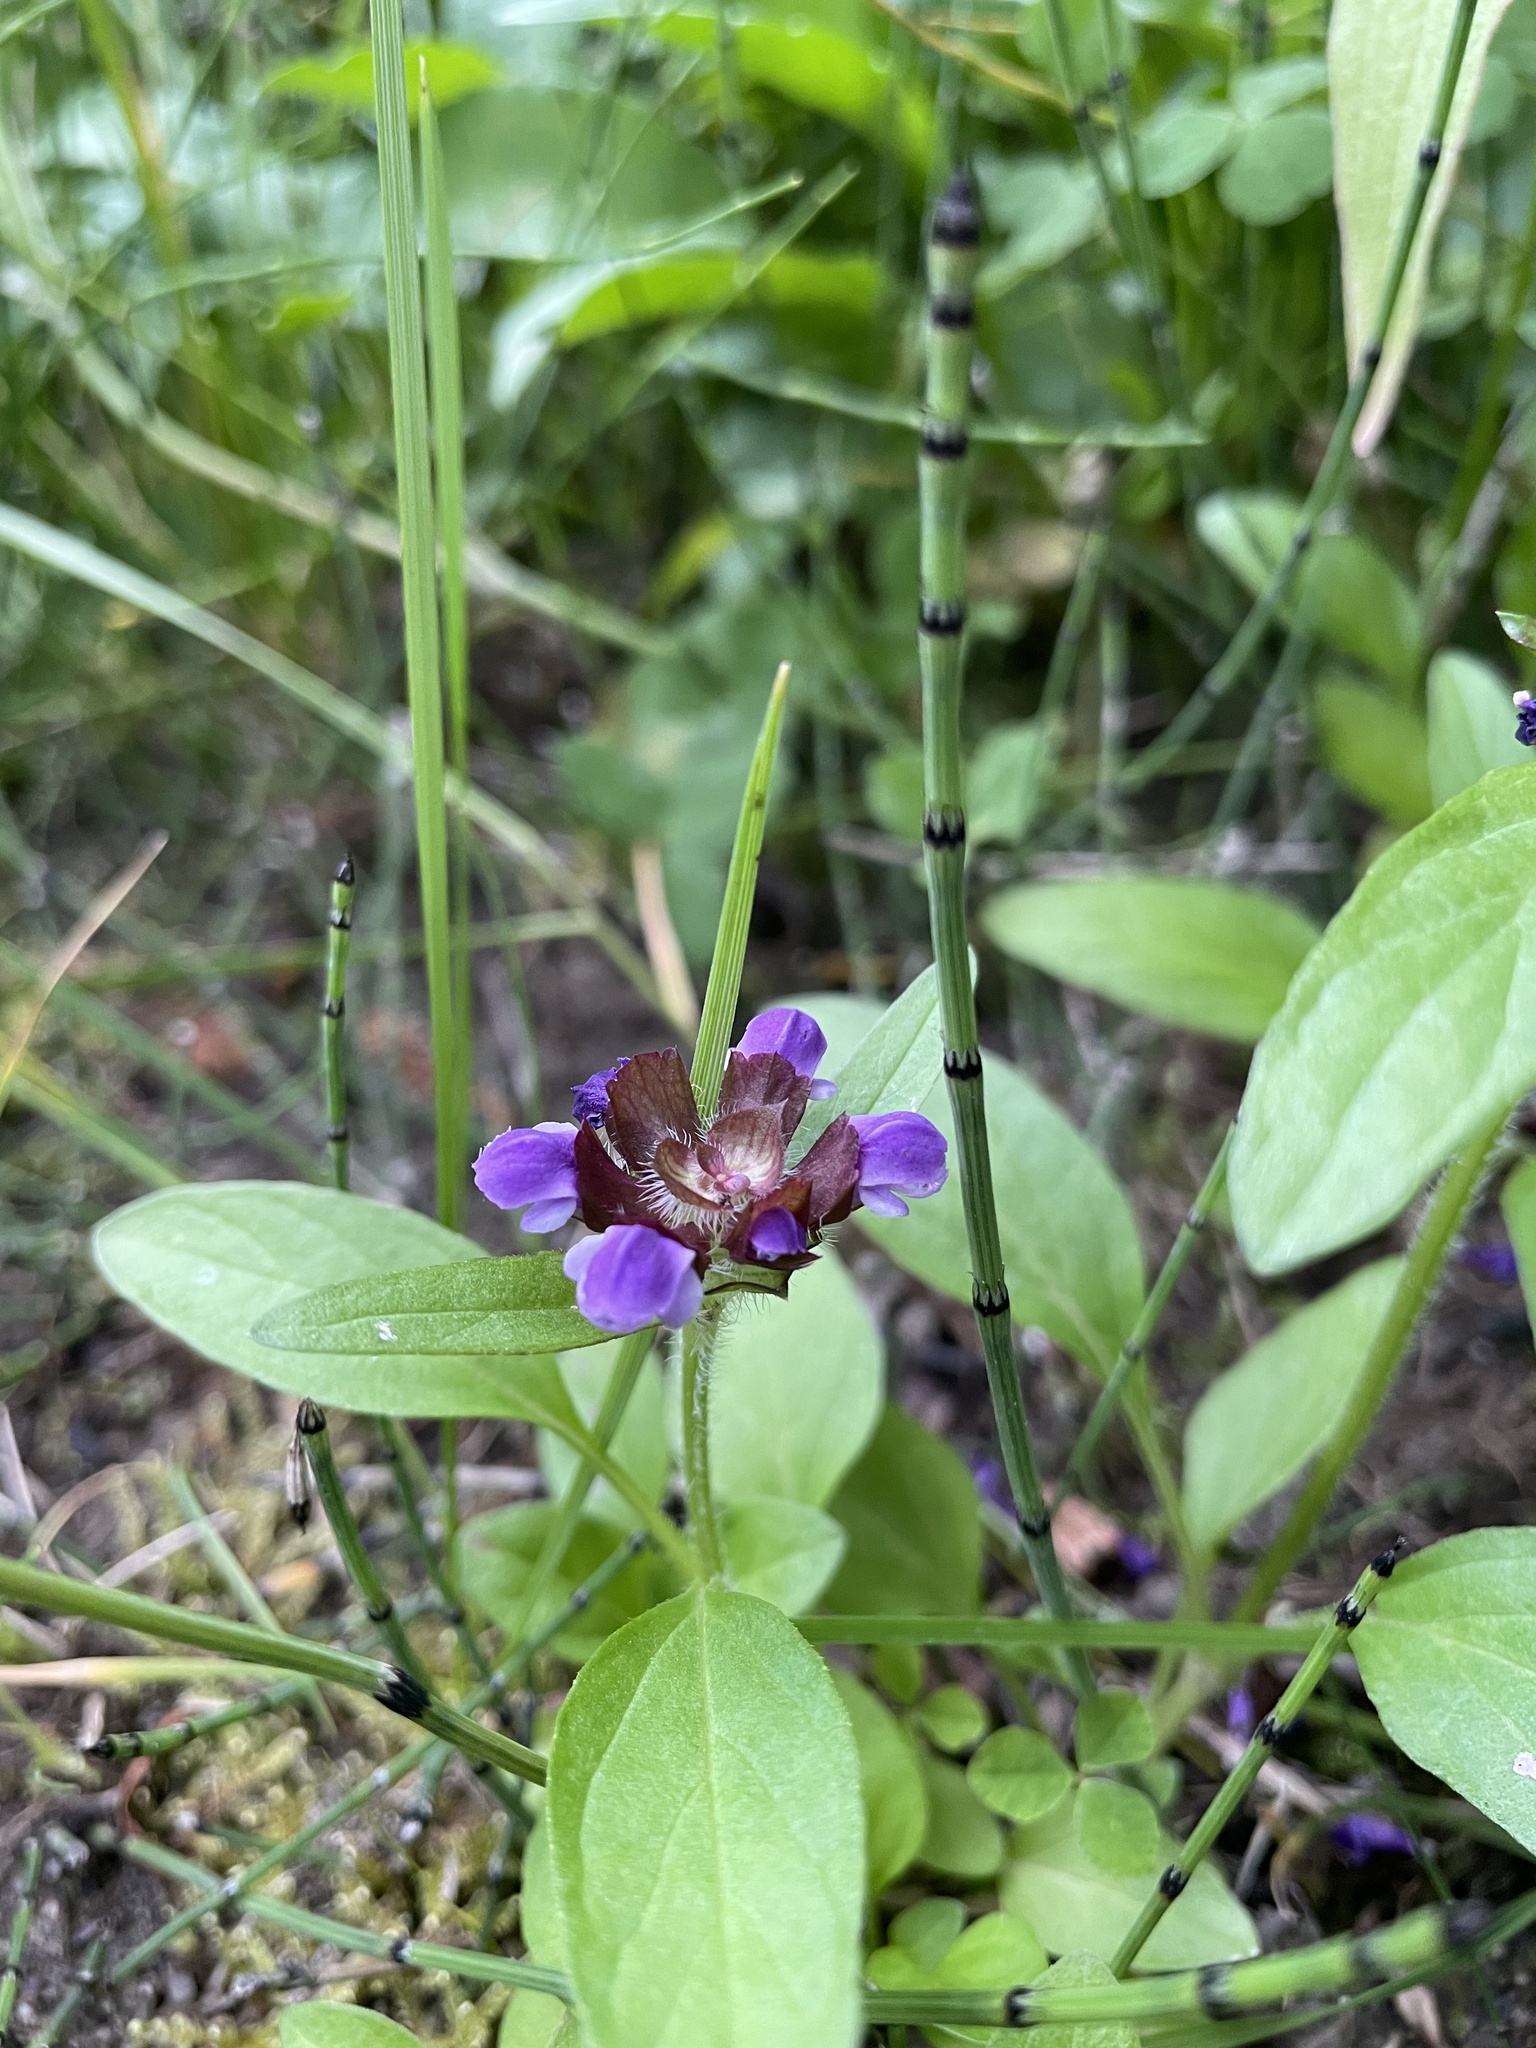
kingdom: Plantae
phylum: Tracheophyta
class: Magnoliopsida
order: Lamiales
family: Lamiaceae
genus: Prunella
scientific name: Prunella vulgaris
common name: Heal-all
